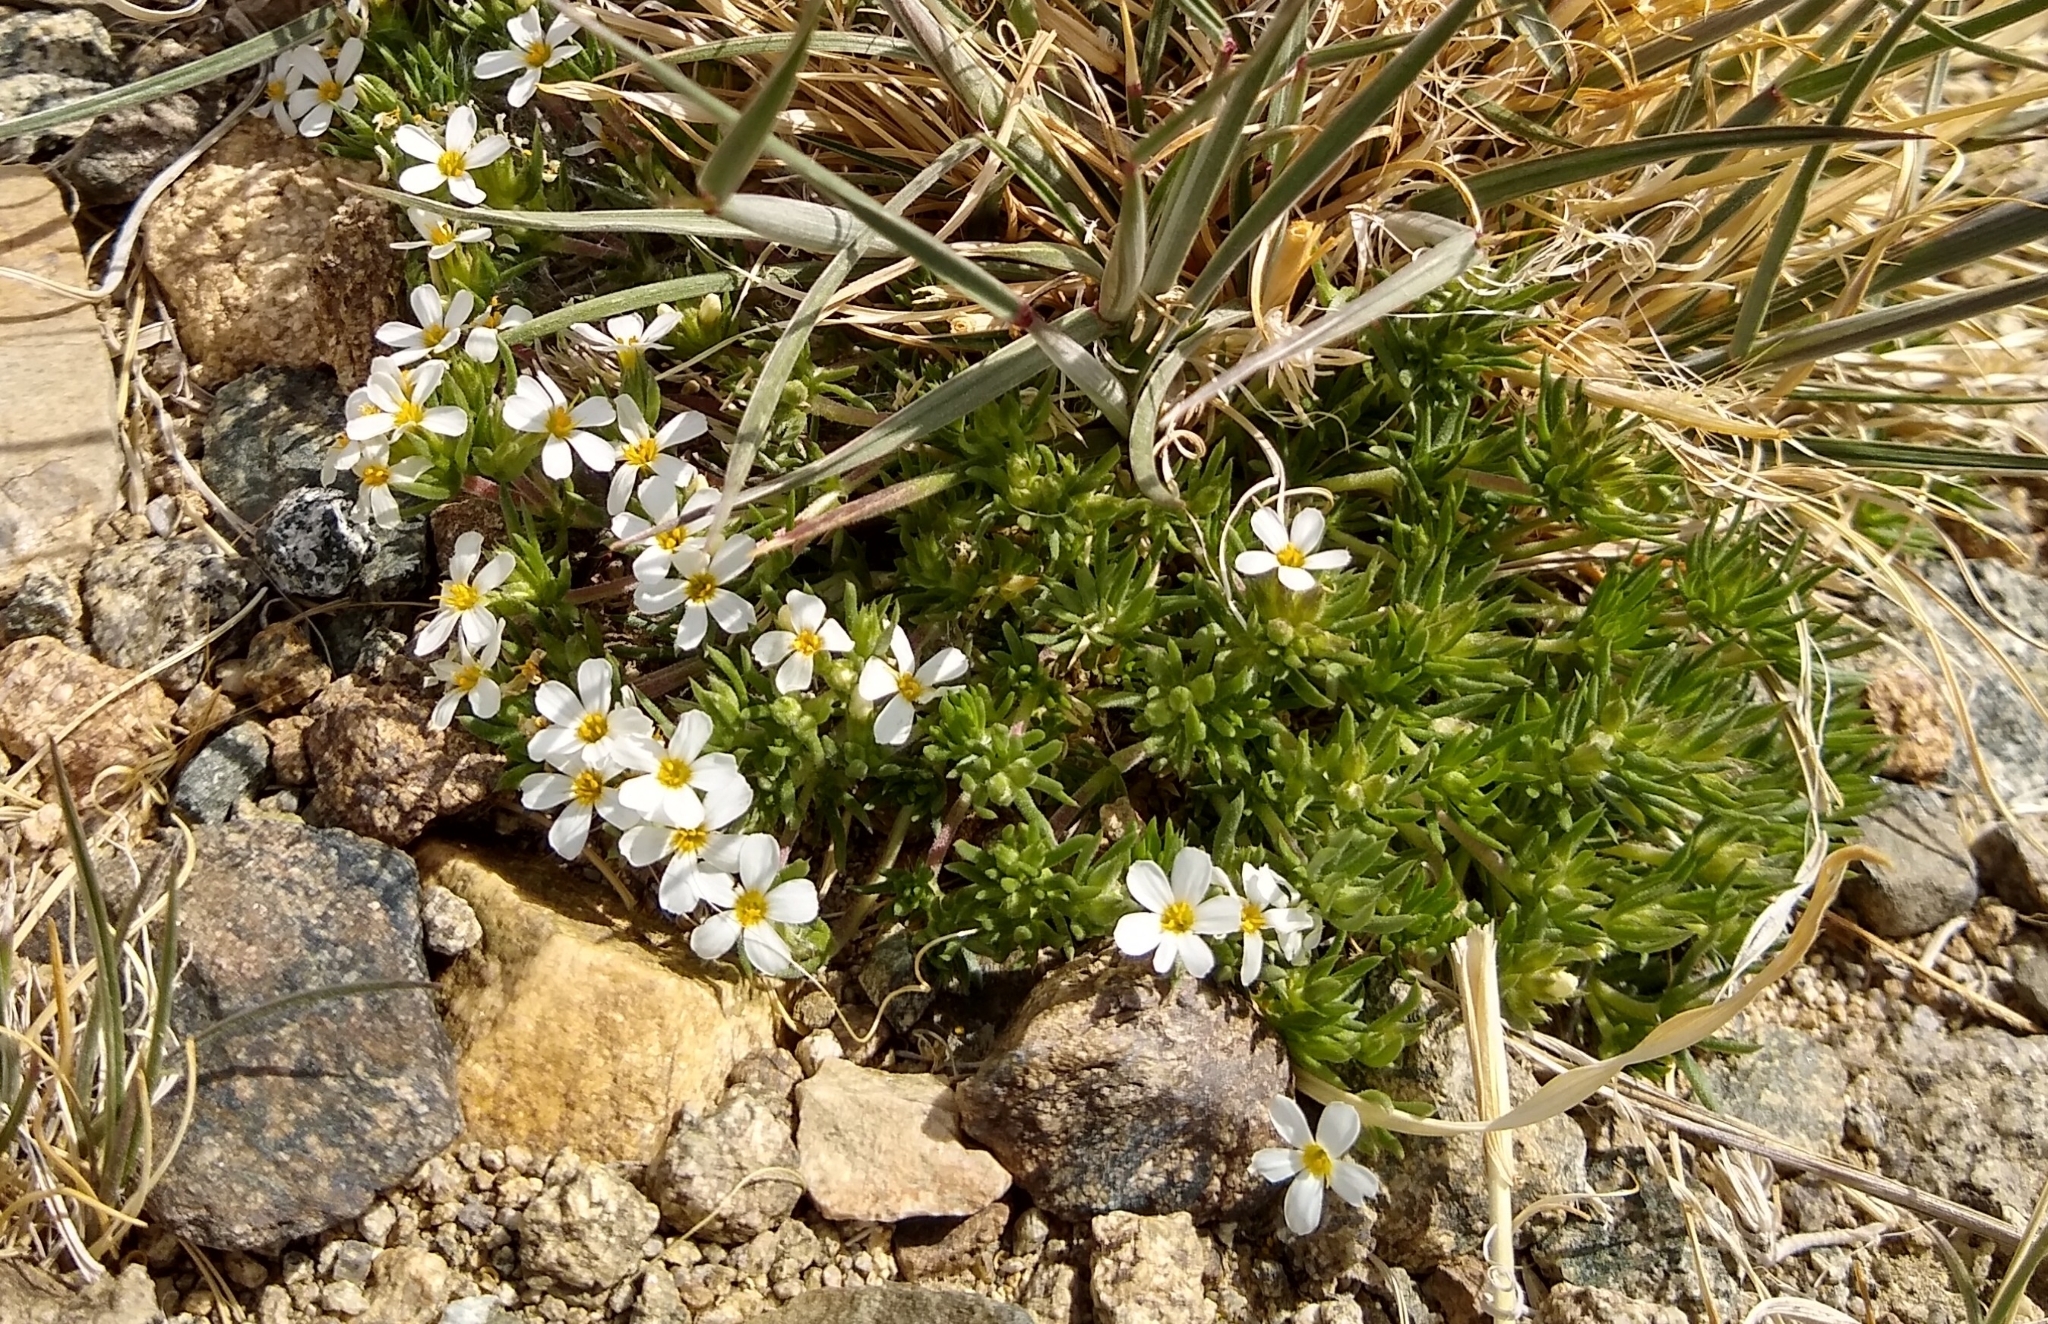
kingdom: Plantae
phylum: Tracheophyta
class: Magnoliopsida
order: Ericales
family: Polemoniaceae
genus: Leptosiphon
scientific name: Leptosiphon nuttallii
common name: Nuttall's linanthus
